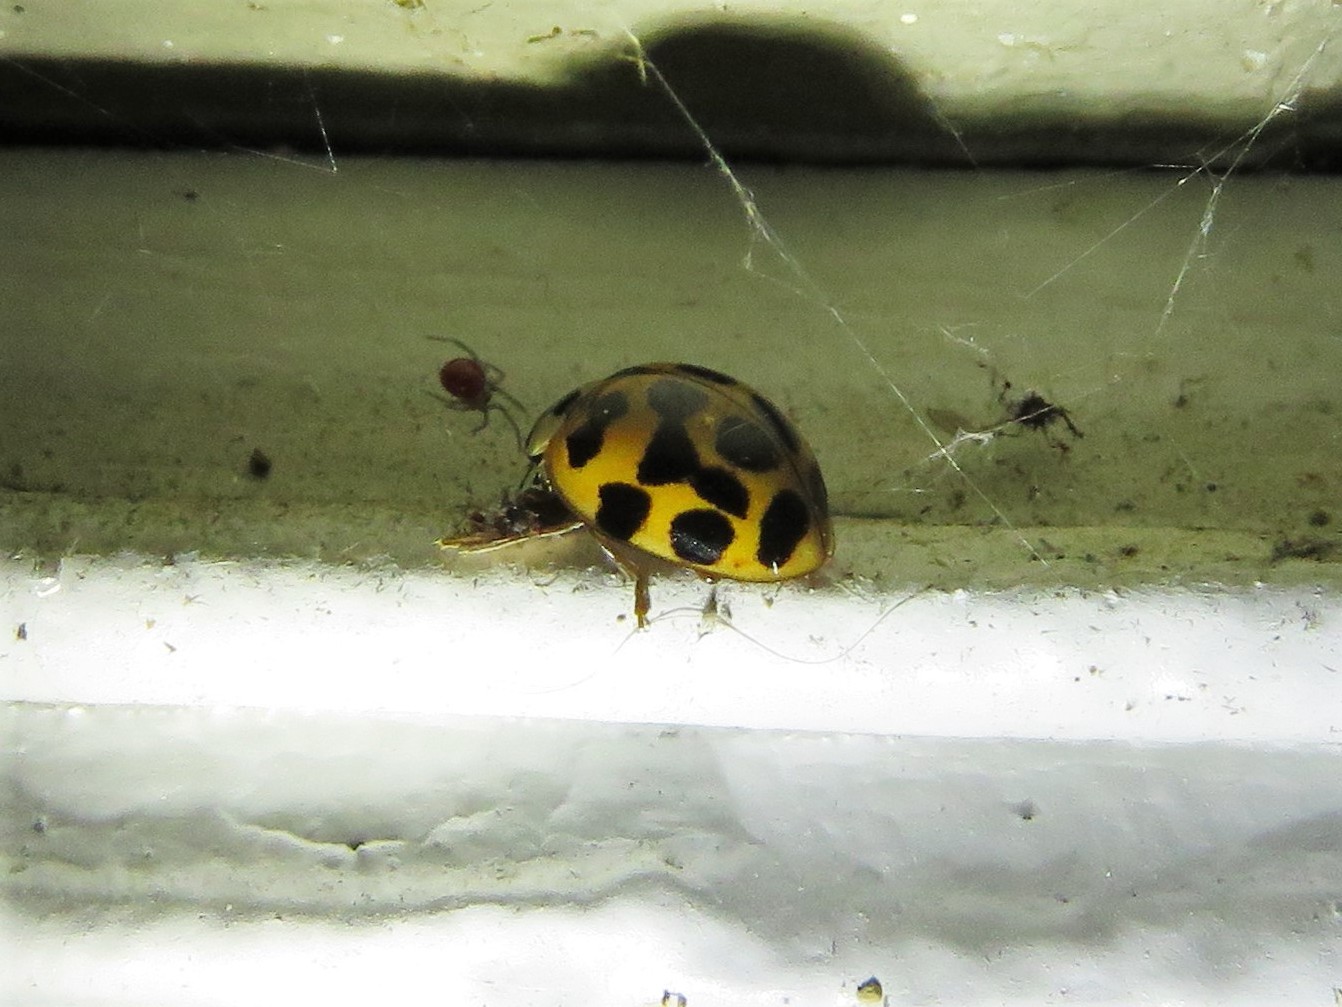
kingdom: Animalia
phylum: Arthropoda
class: Insecta
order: Coleoptera
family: Coccinellidae
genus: Harmonia
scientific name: Harmonia axyridis
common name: Harlequin ladybird
